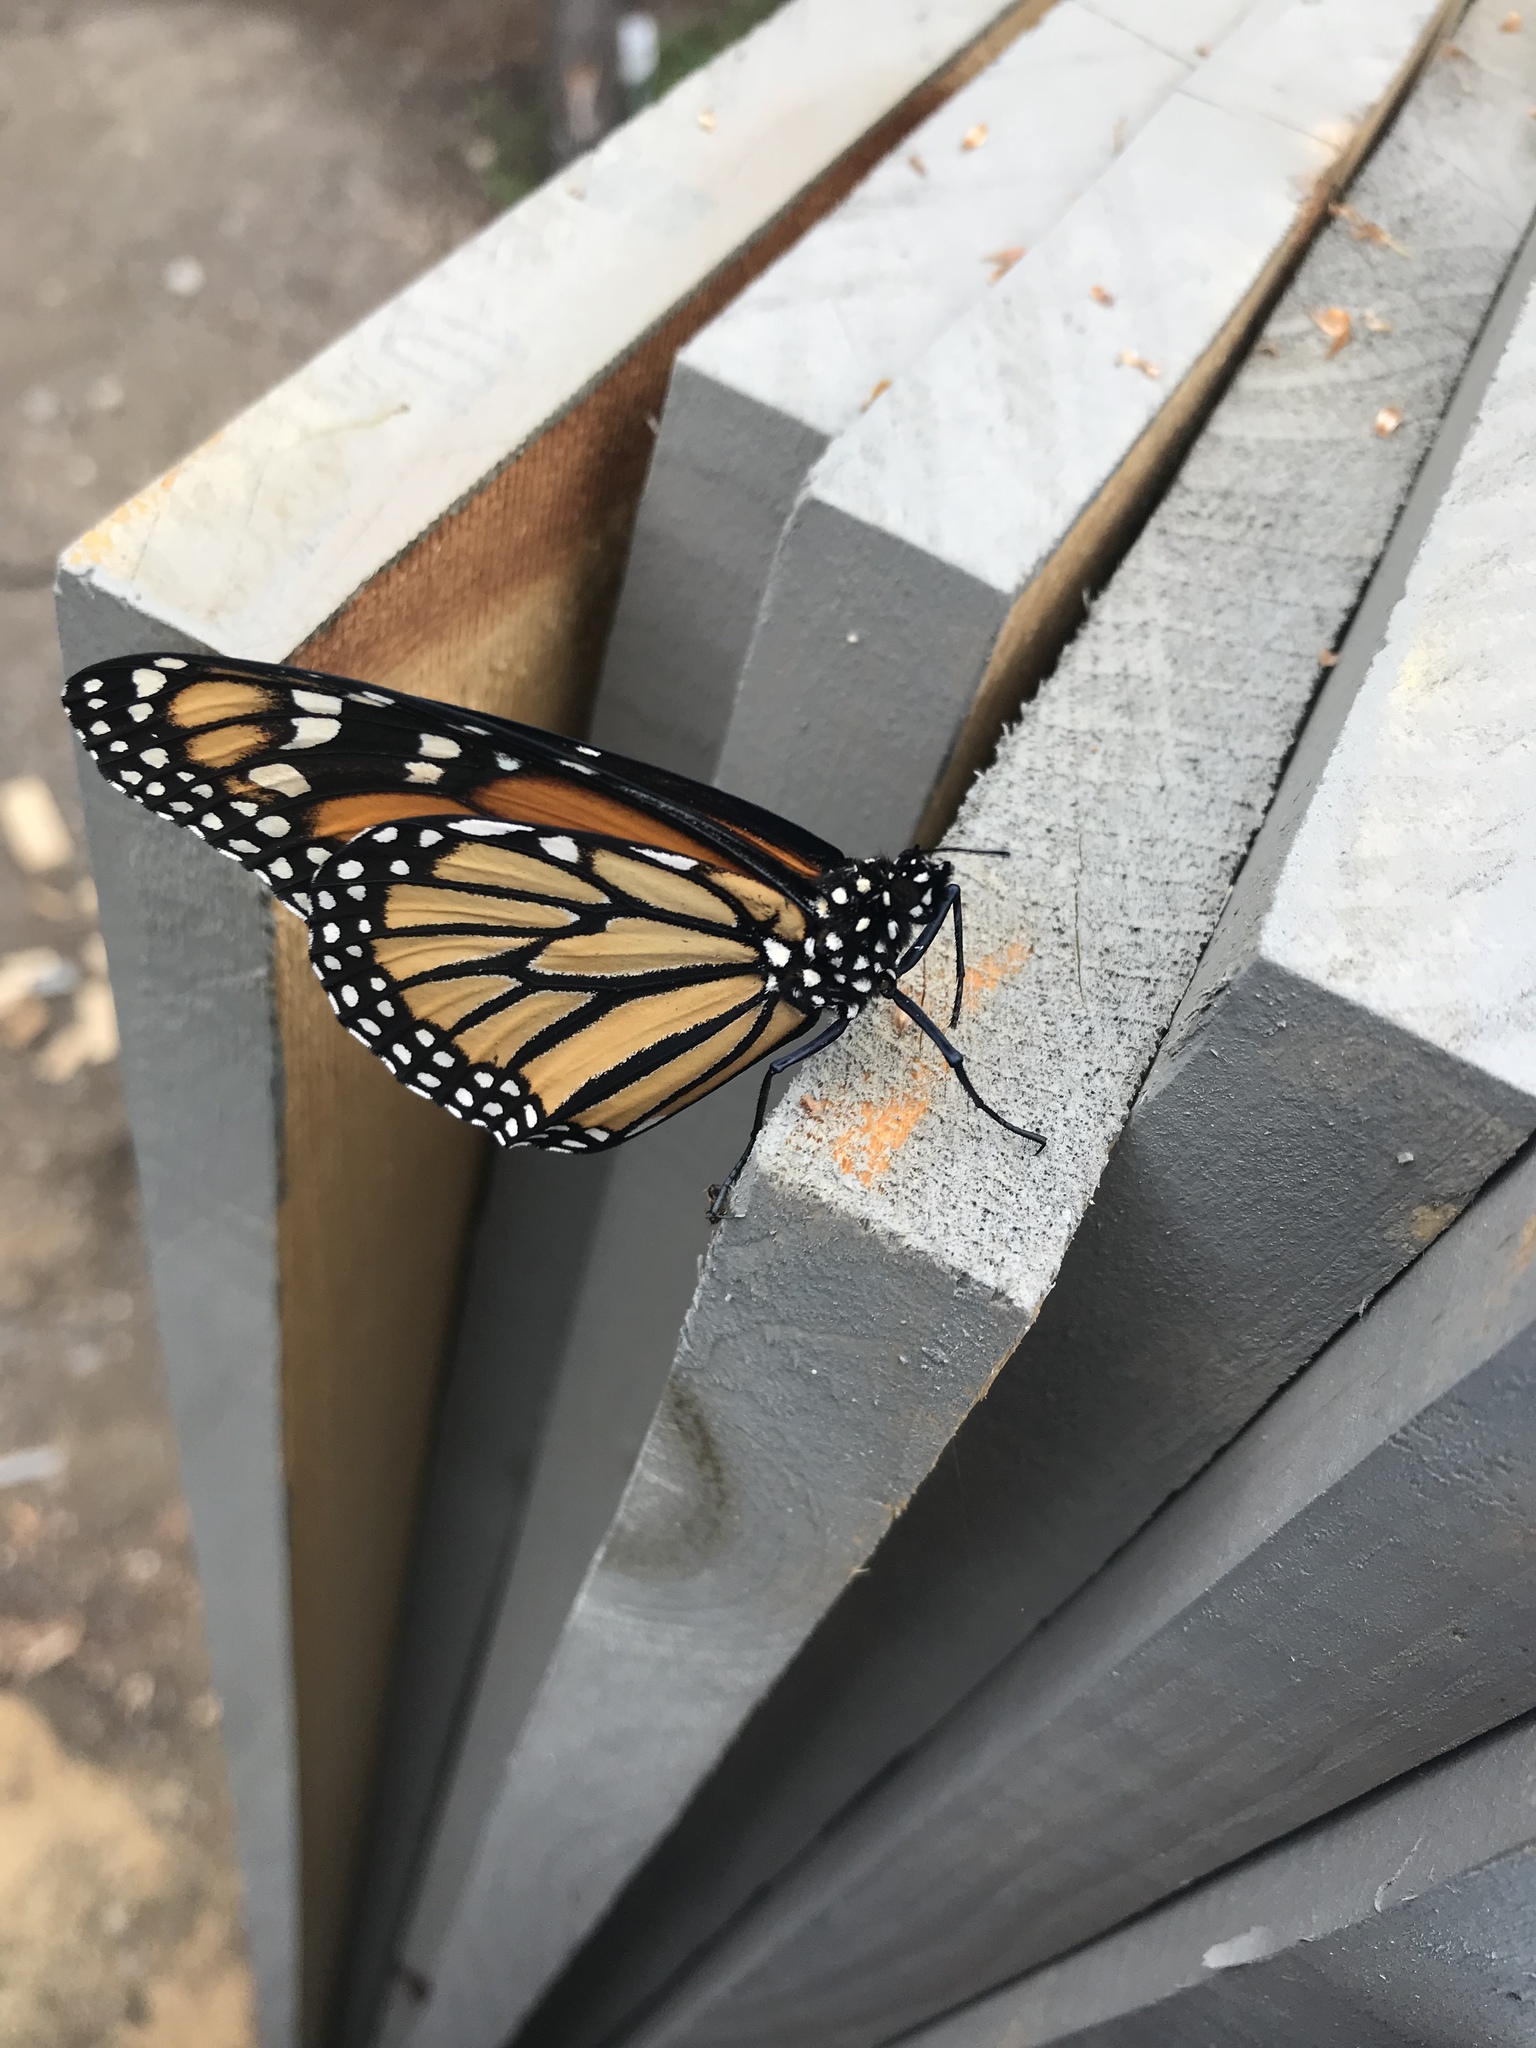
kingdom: Animalia
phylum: Arthropoda
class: Insecta
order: Lepidoptera
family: Nymphalidae
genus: Danaus
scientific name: Danaus plexippus
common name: Monarch
